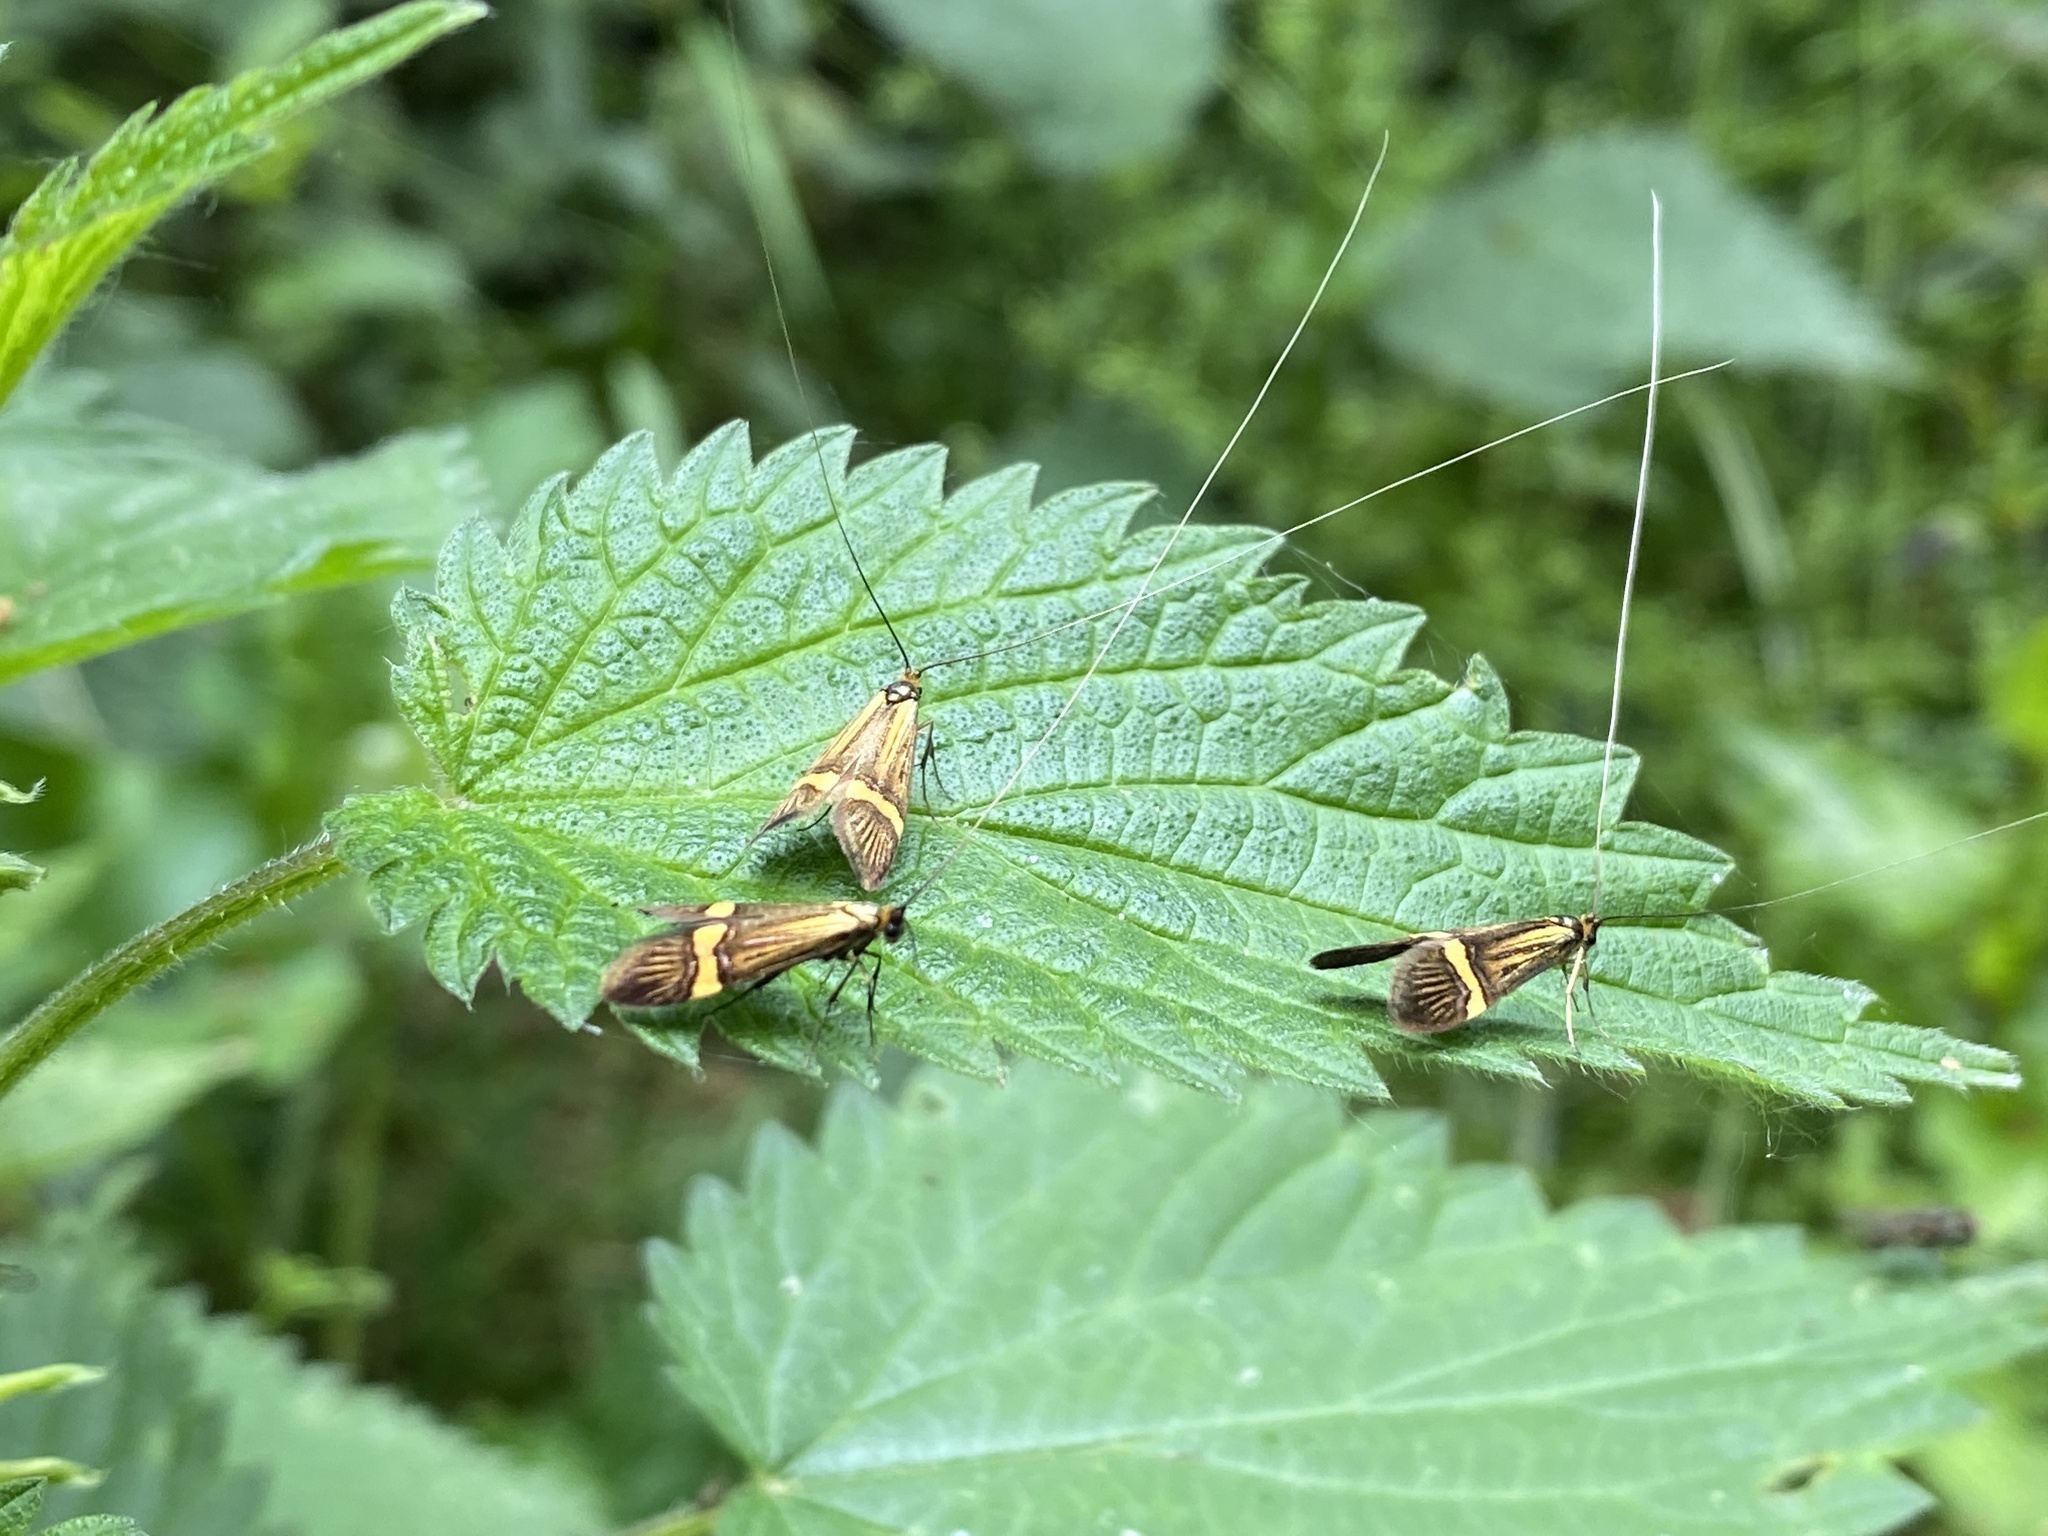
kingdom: Animalia
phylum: Arthropoda
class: Insecta
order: Lepidoptera
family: Adelidae
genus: Nemophora
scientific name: Nemophora degeerella
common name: Yellow-barred long-horn
